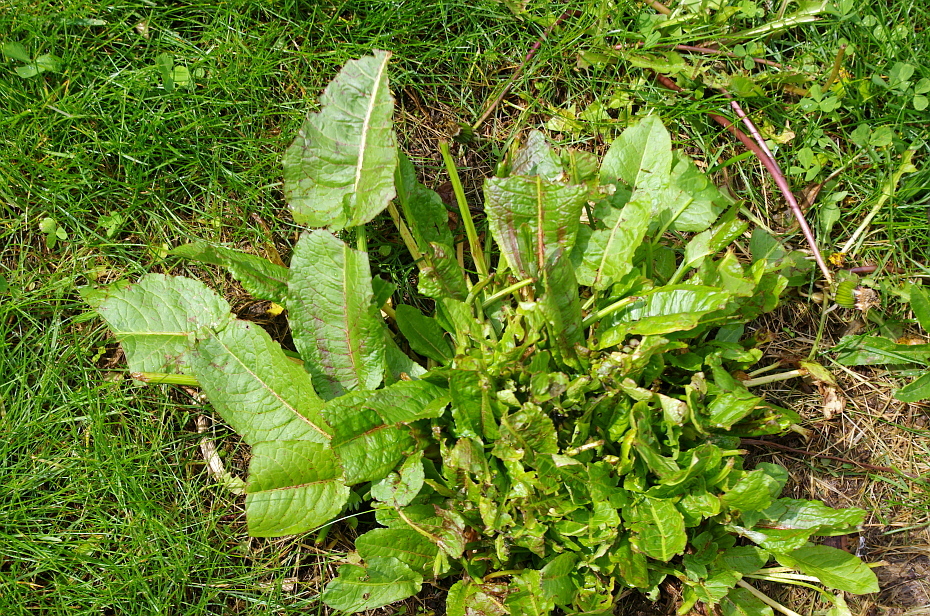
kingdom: Plantae
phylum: Tracheophyta
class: Magnoliopsida
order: Caryophyllales
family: Polygonaceae
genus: Rumex
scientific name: Rumex obtusifolius
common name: Bitter dock
